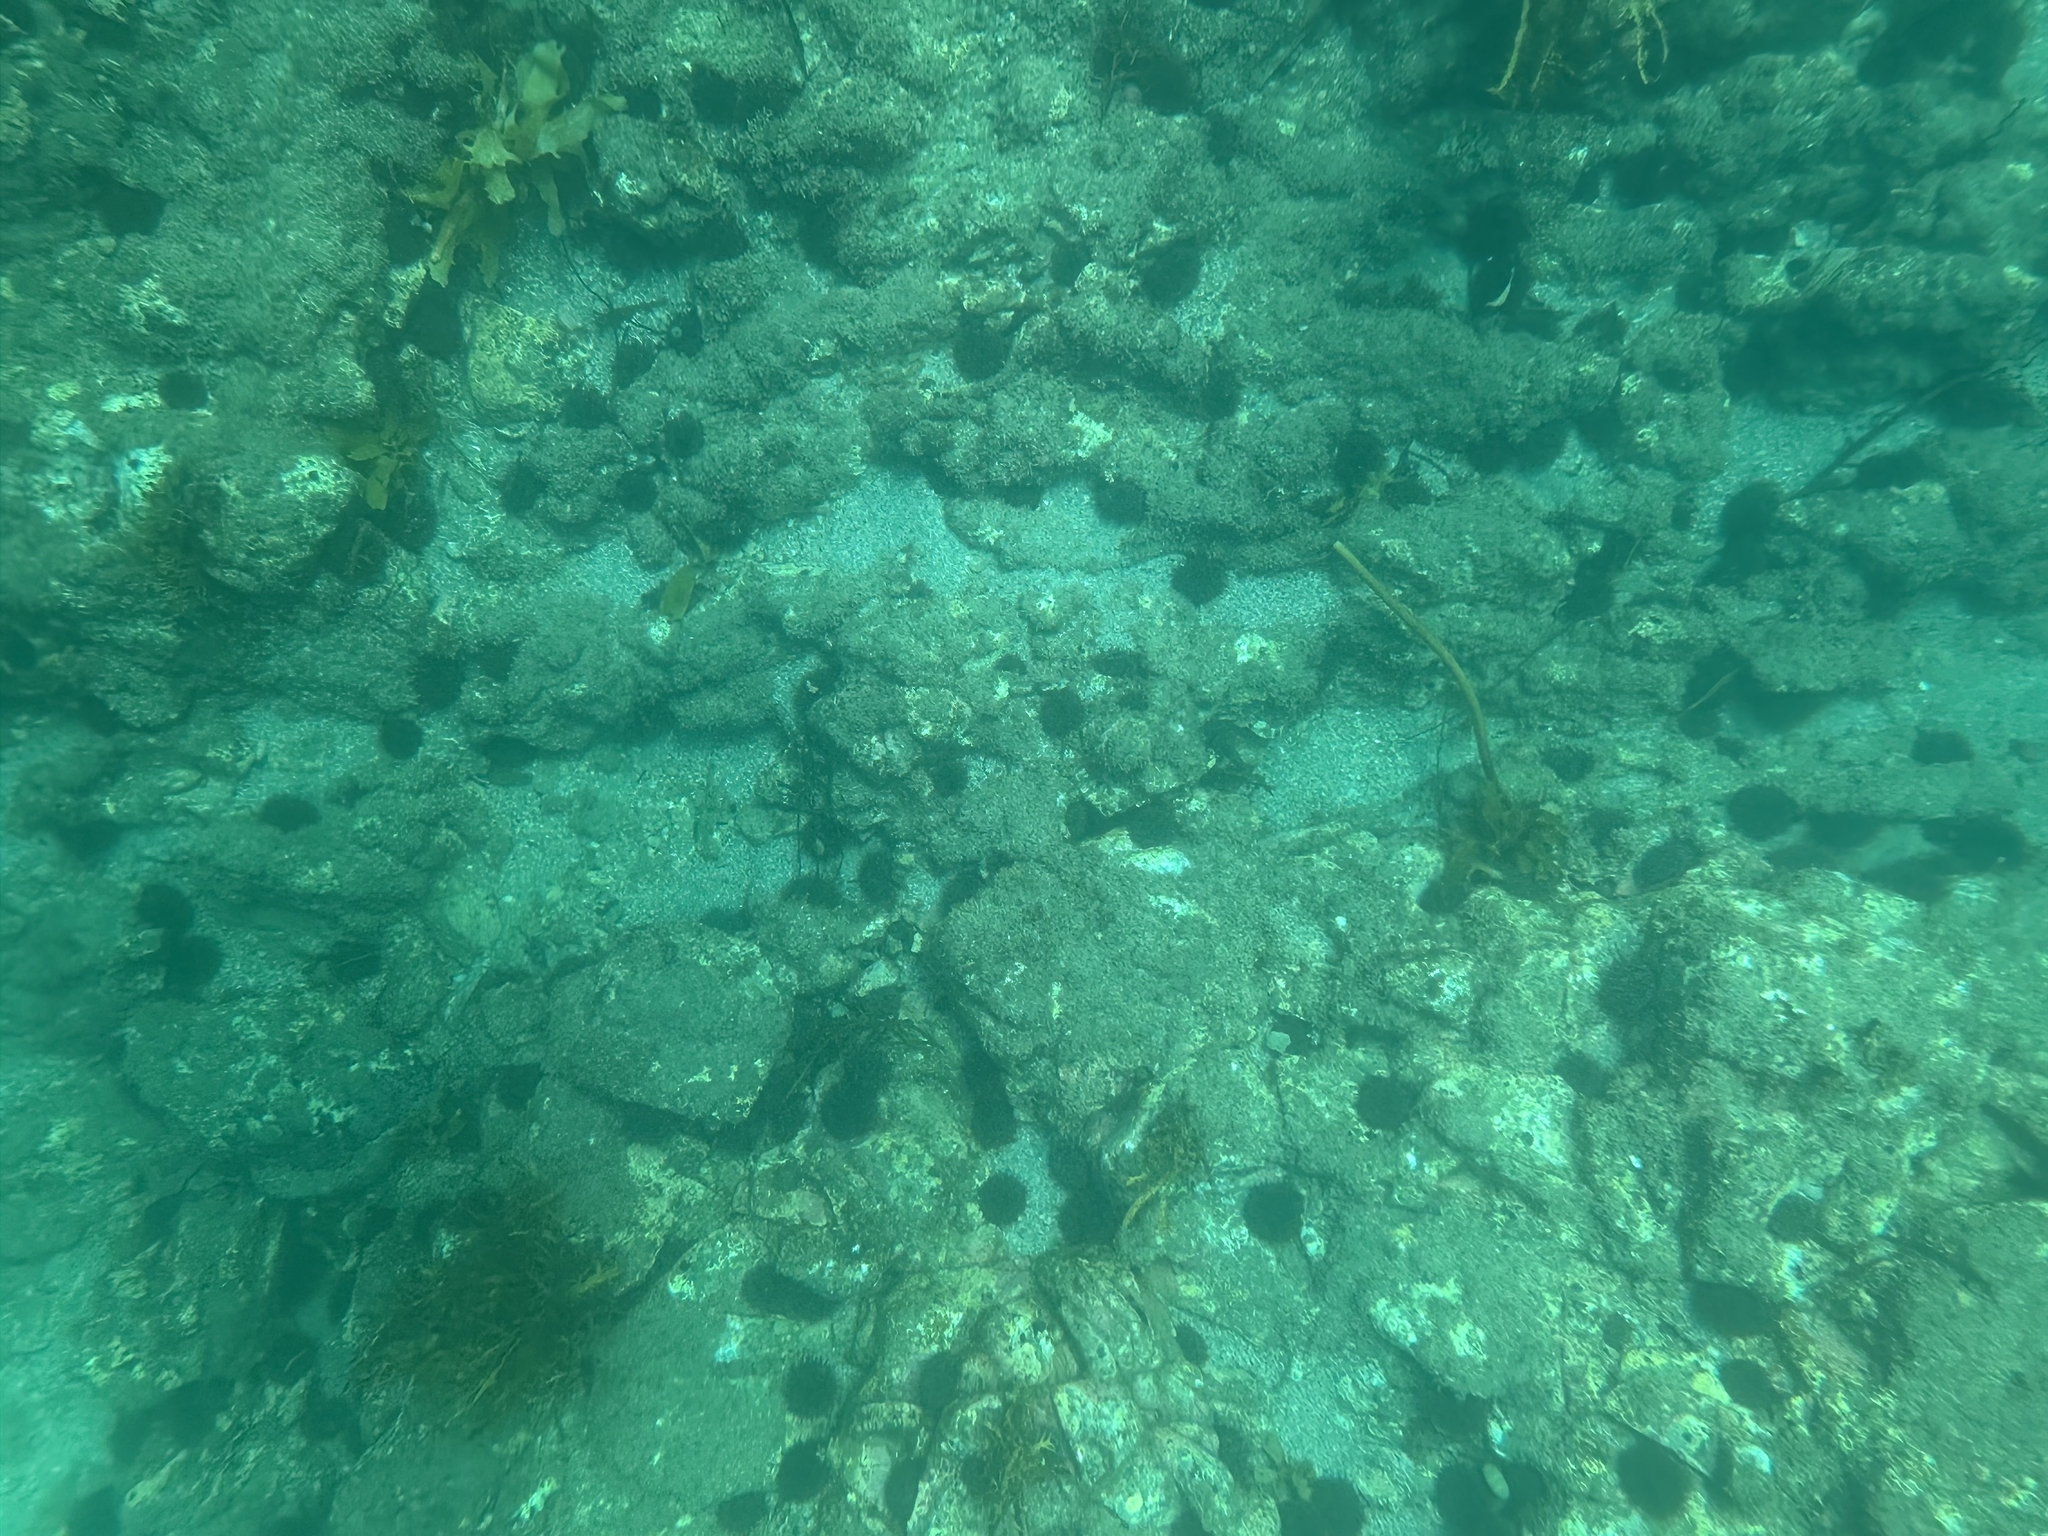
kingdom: Animalia
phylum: Echinodermata
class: Echinoidea
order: Camarodonta
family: Echinometridae
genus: Evechinus
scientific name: Evechinus chloroticus
